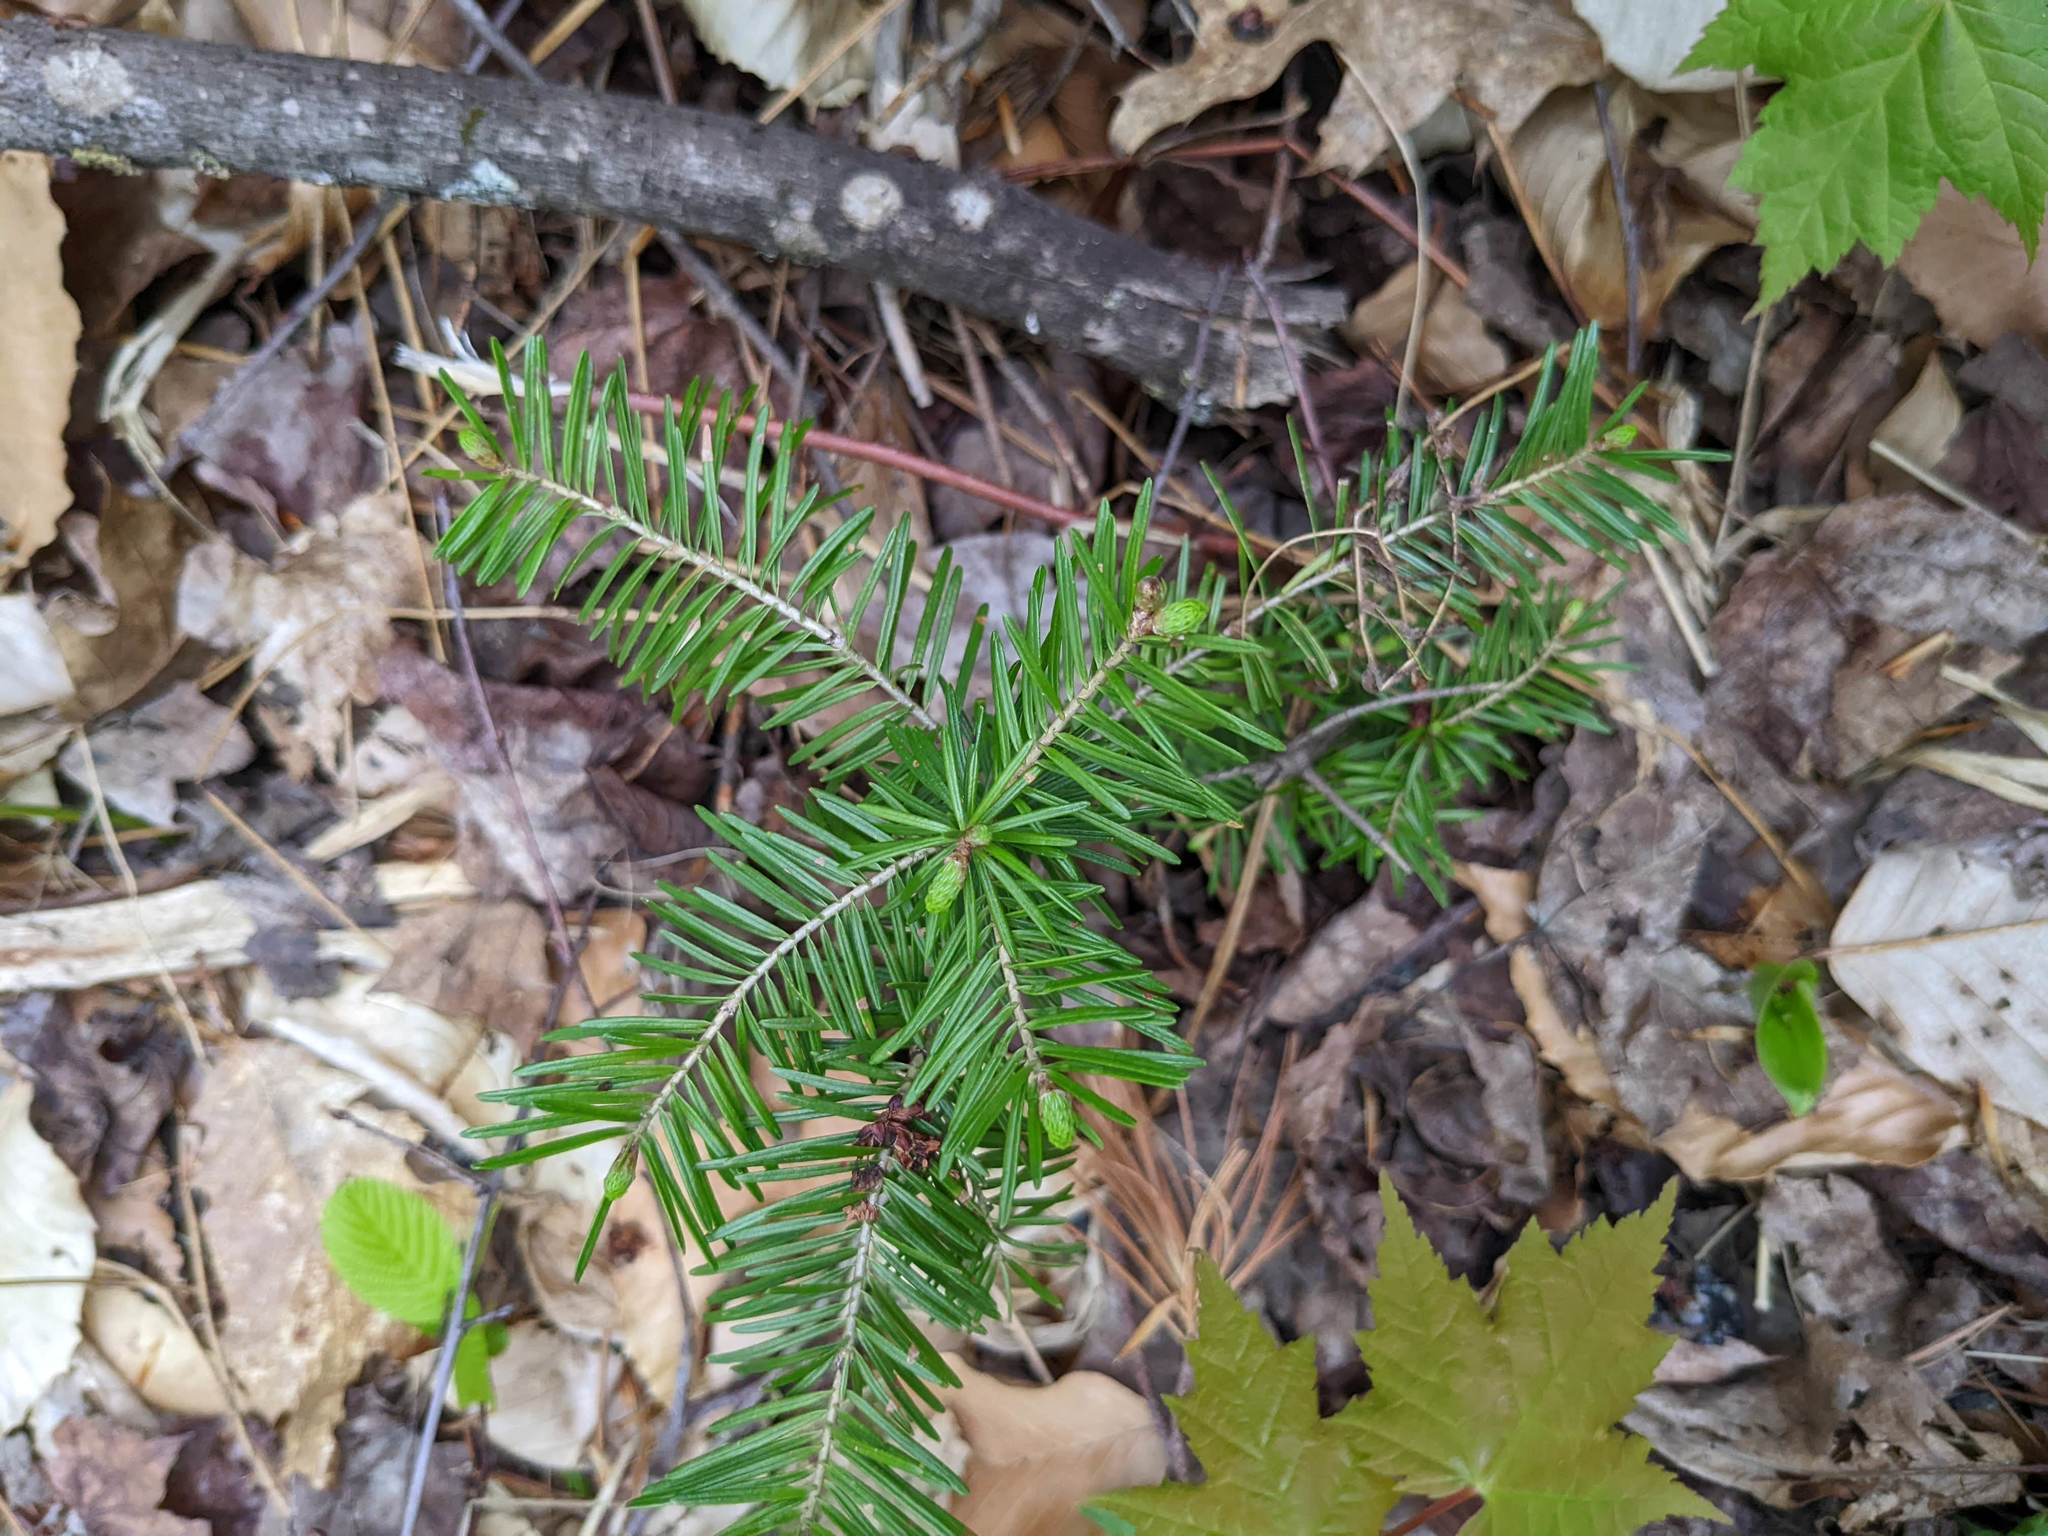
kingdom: Plantae
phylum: Tracheophyta
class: Pinopsida
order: Pinales
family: Pinaceae
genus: Abies
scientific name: Abies balsamea
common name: Balsam fir
